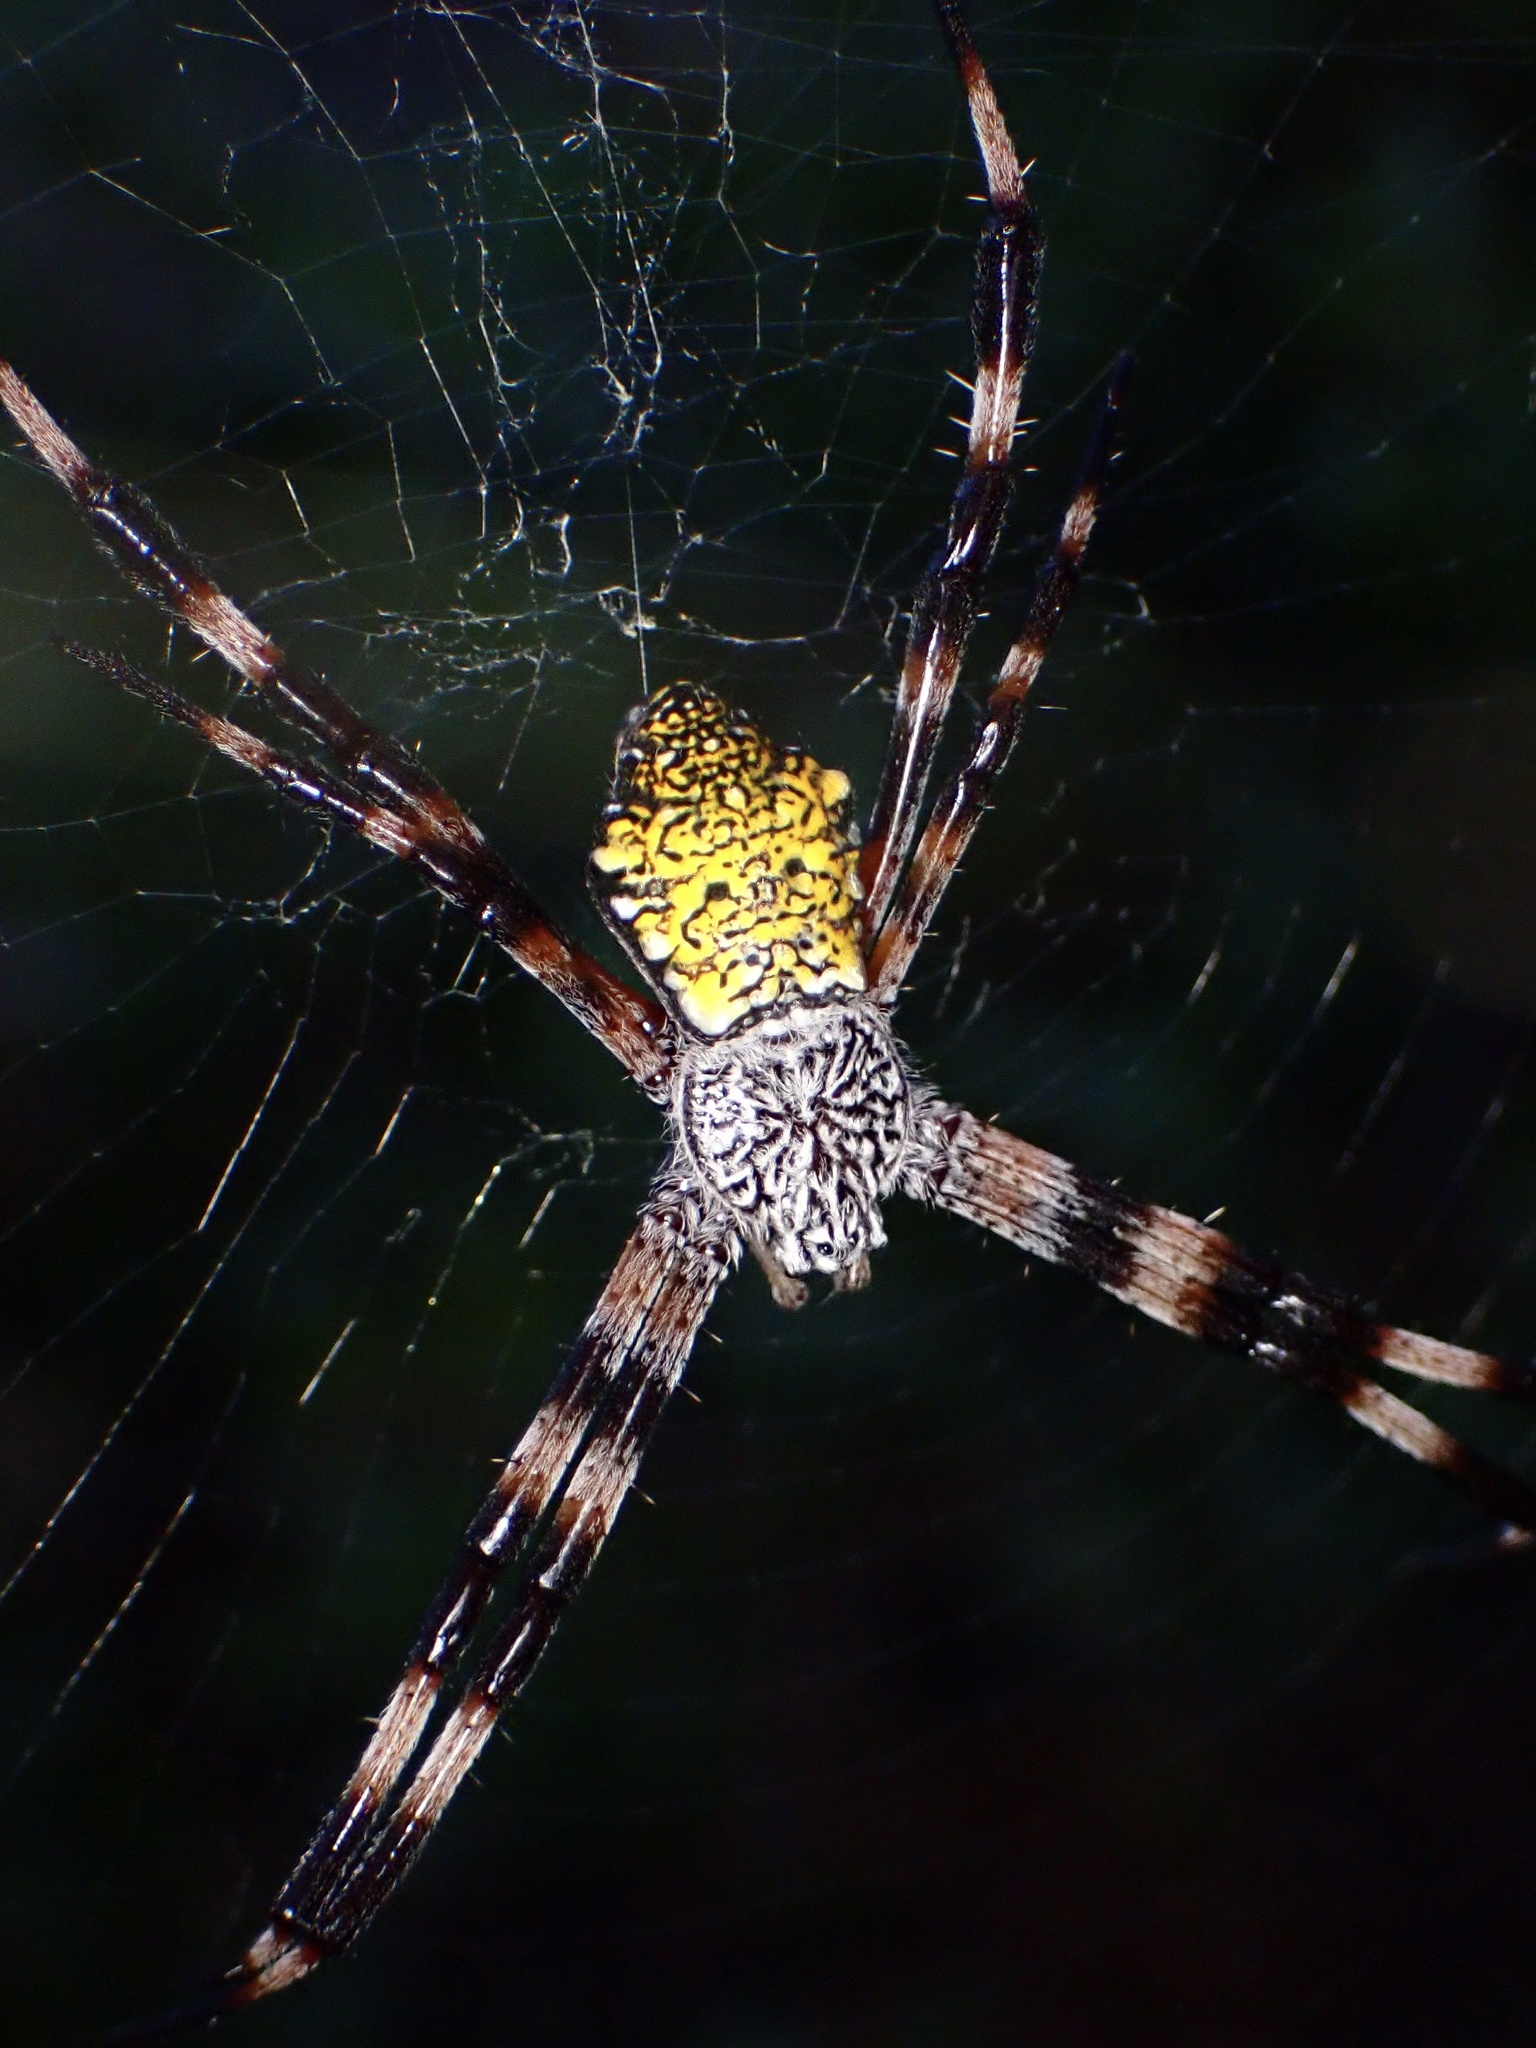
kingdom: Animalia
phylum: Arthropoda
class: Arachnida
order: Araneae
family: Araneidae
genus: Argiope
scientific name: Argiope appensa
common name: Garden spider
